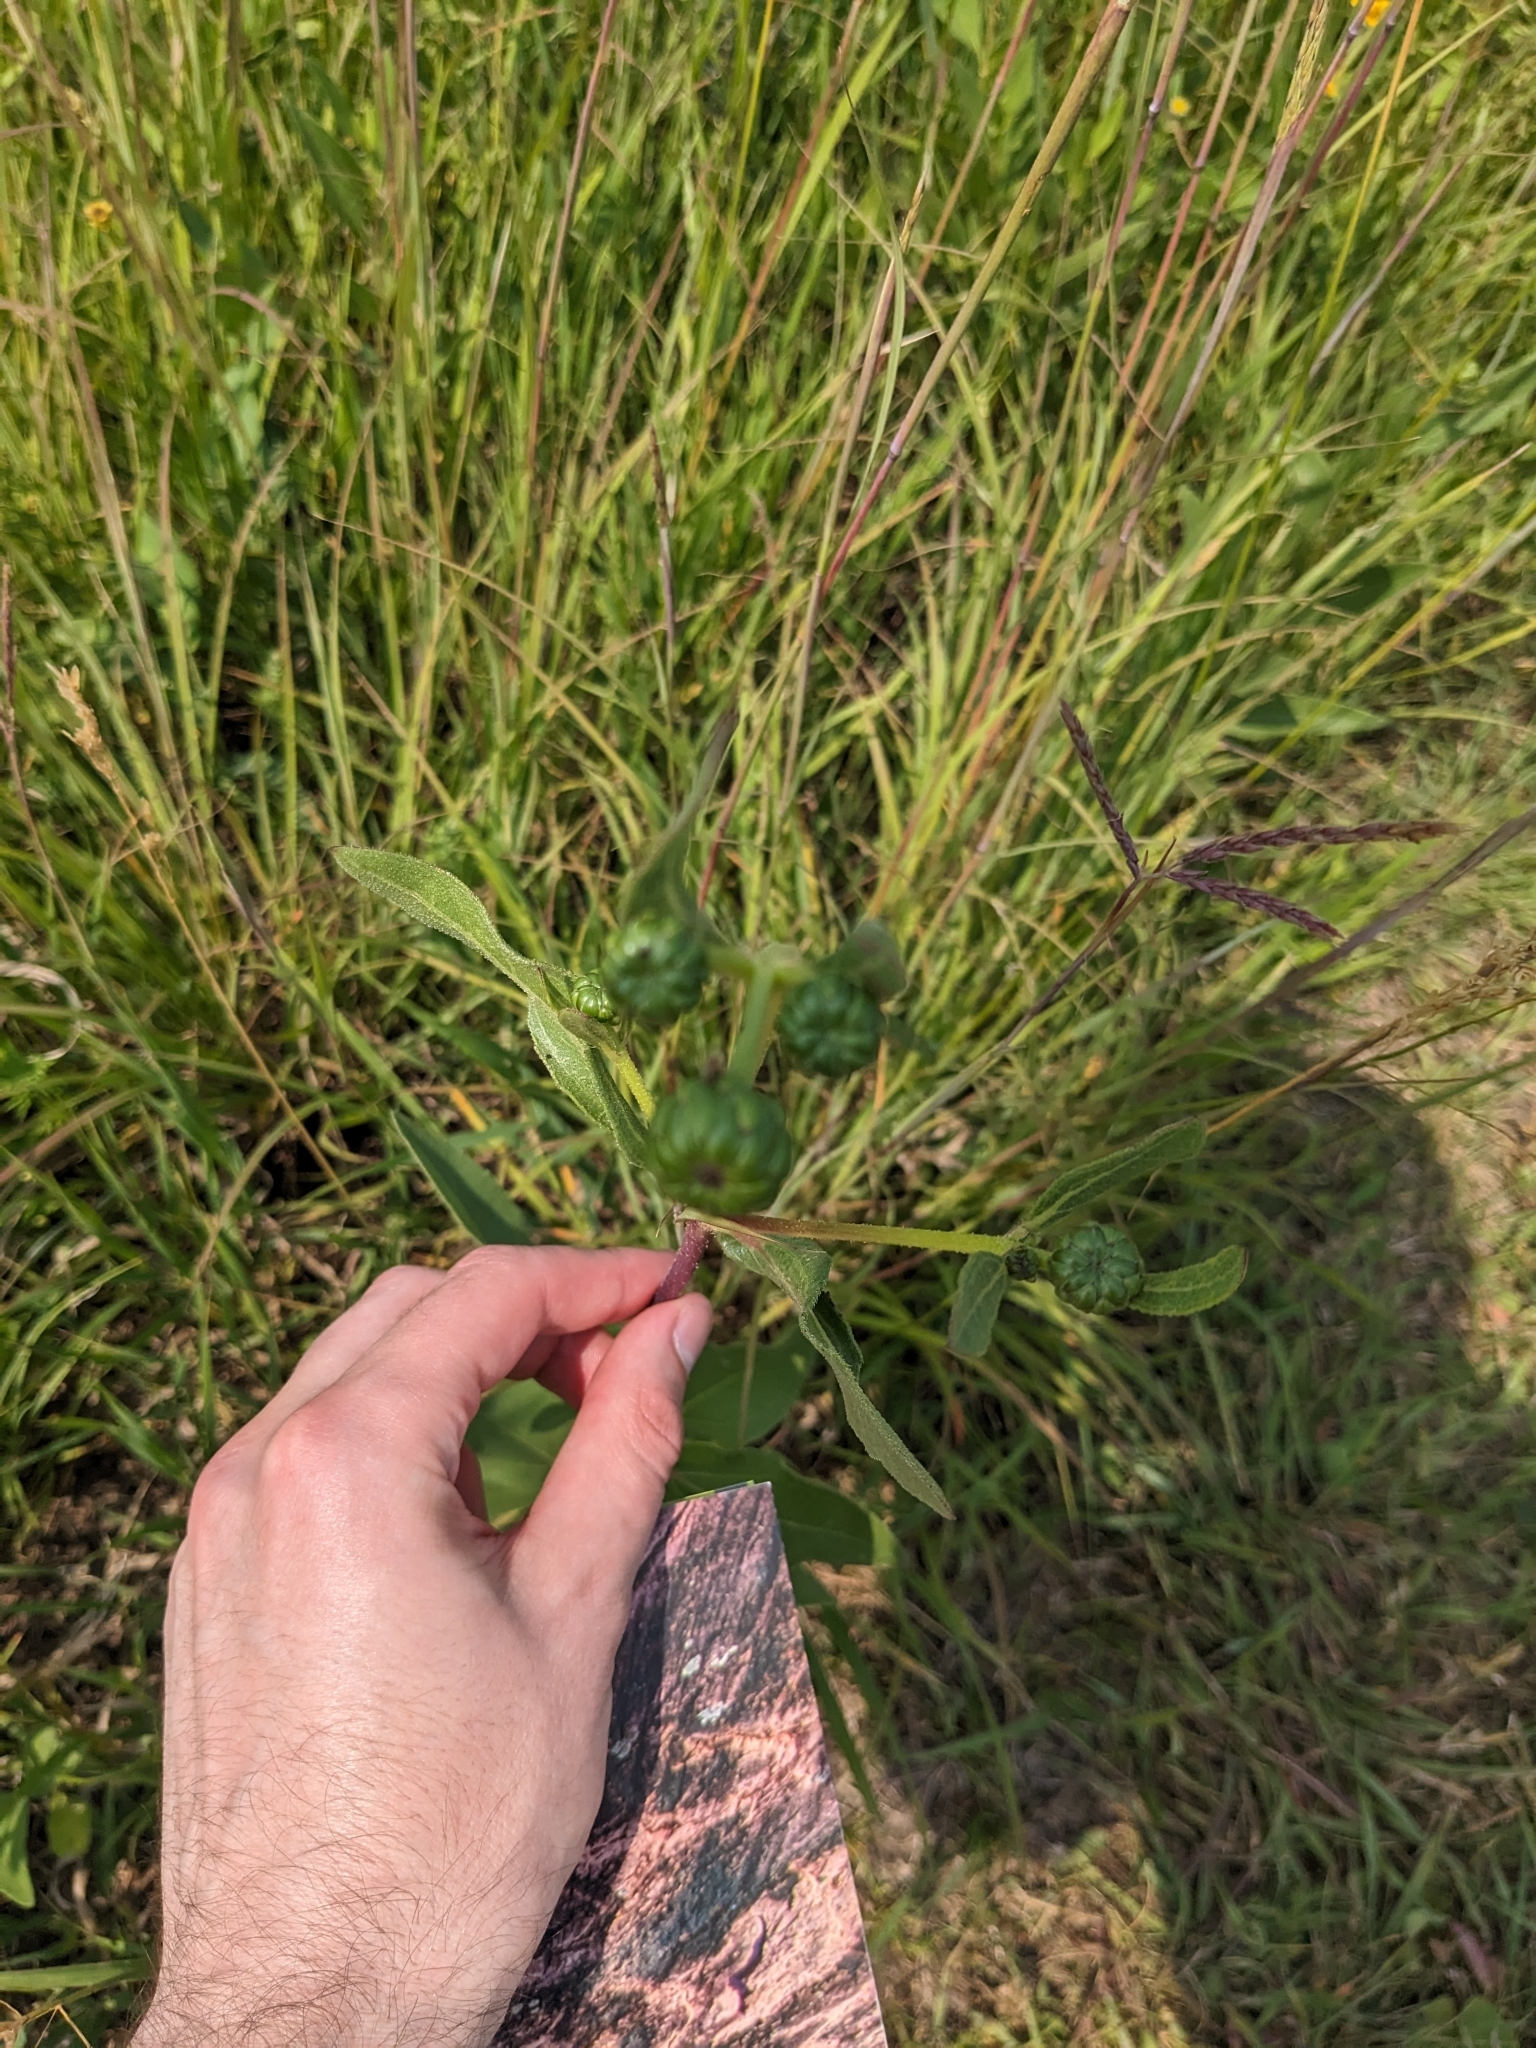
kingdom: Plantae
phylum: Tracheophyta
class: Magnoliopsida
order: Asterales
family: Asteraceae
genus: Helianthus
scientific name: Helianthus pauciflorus
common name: Stiff sunflower
